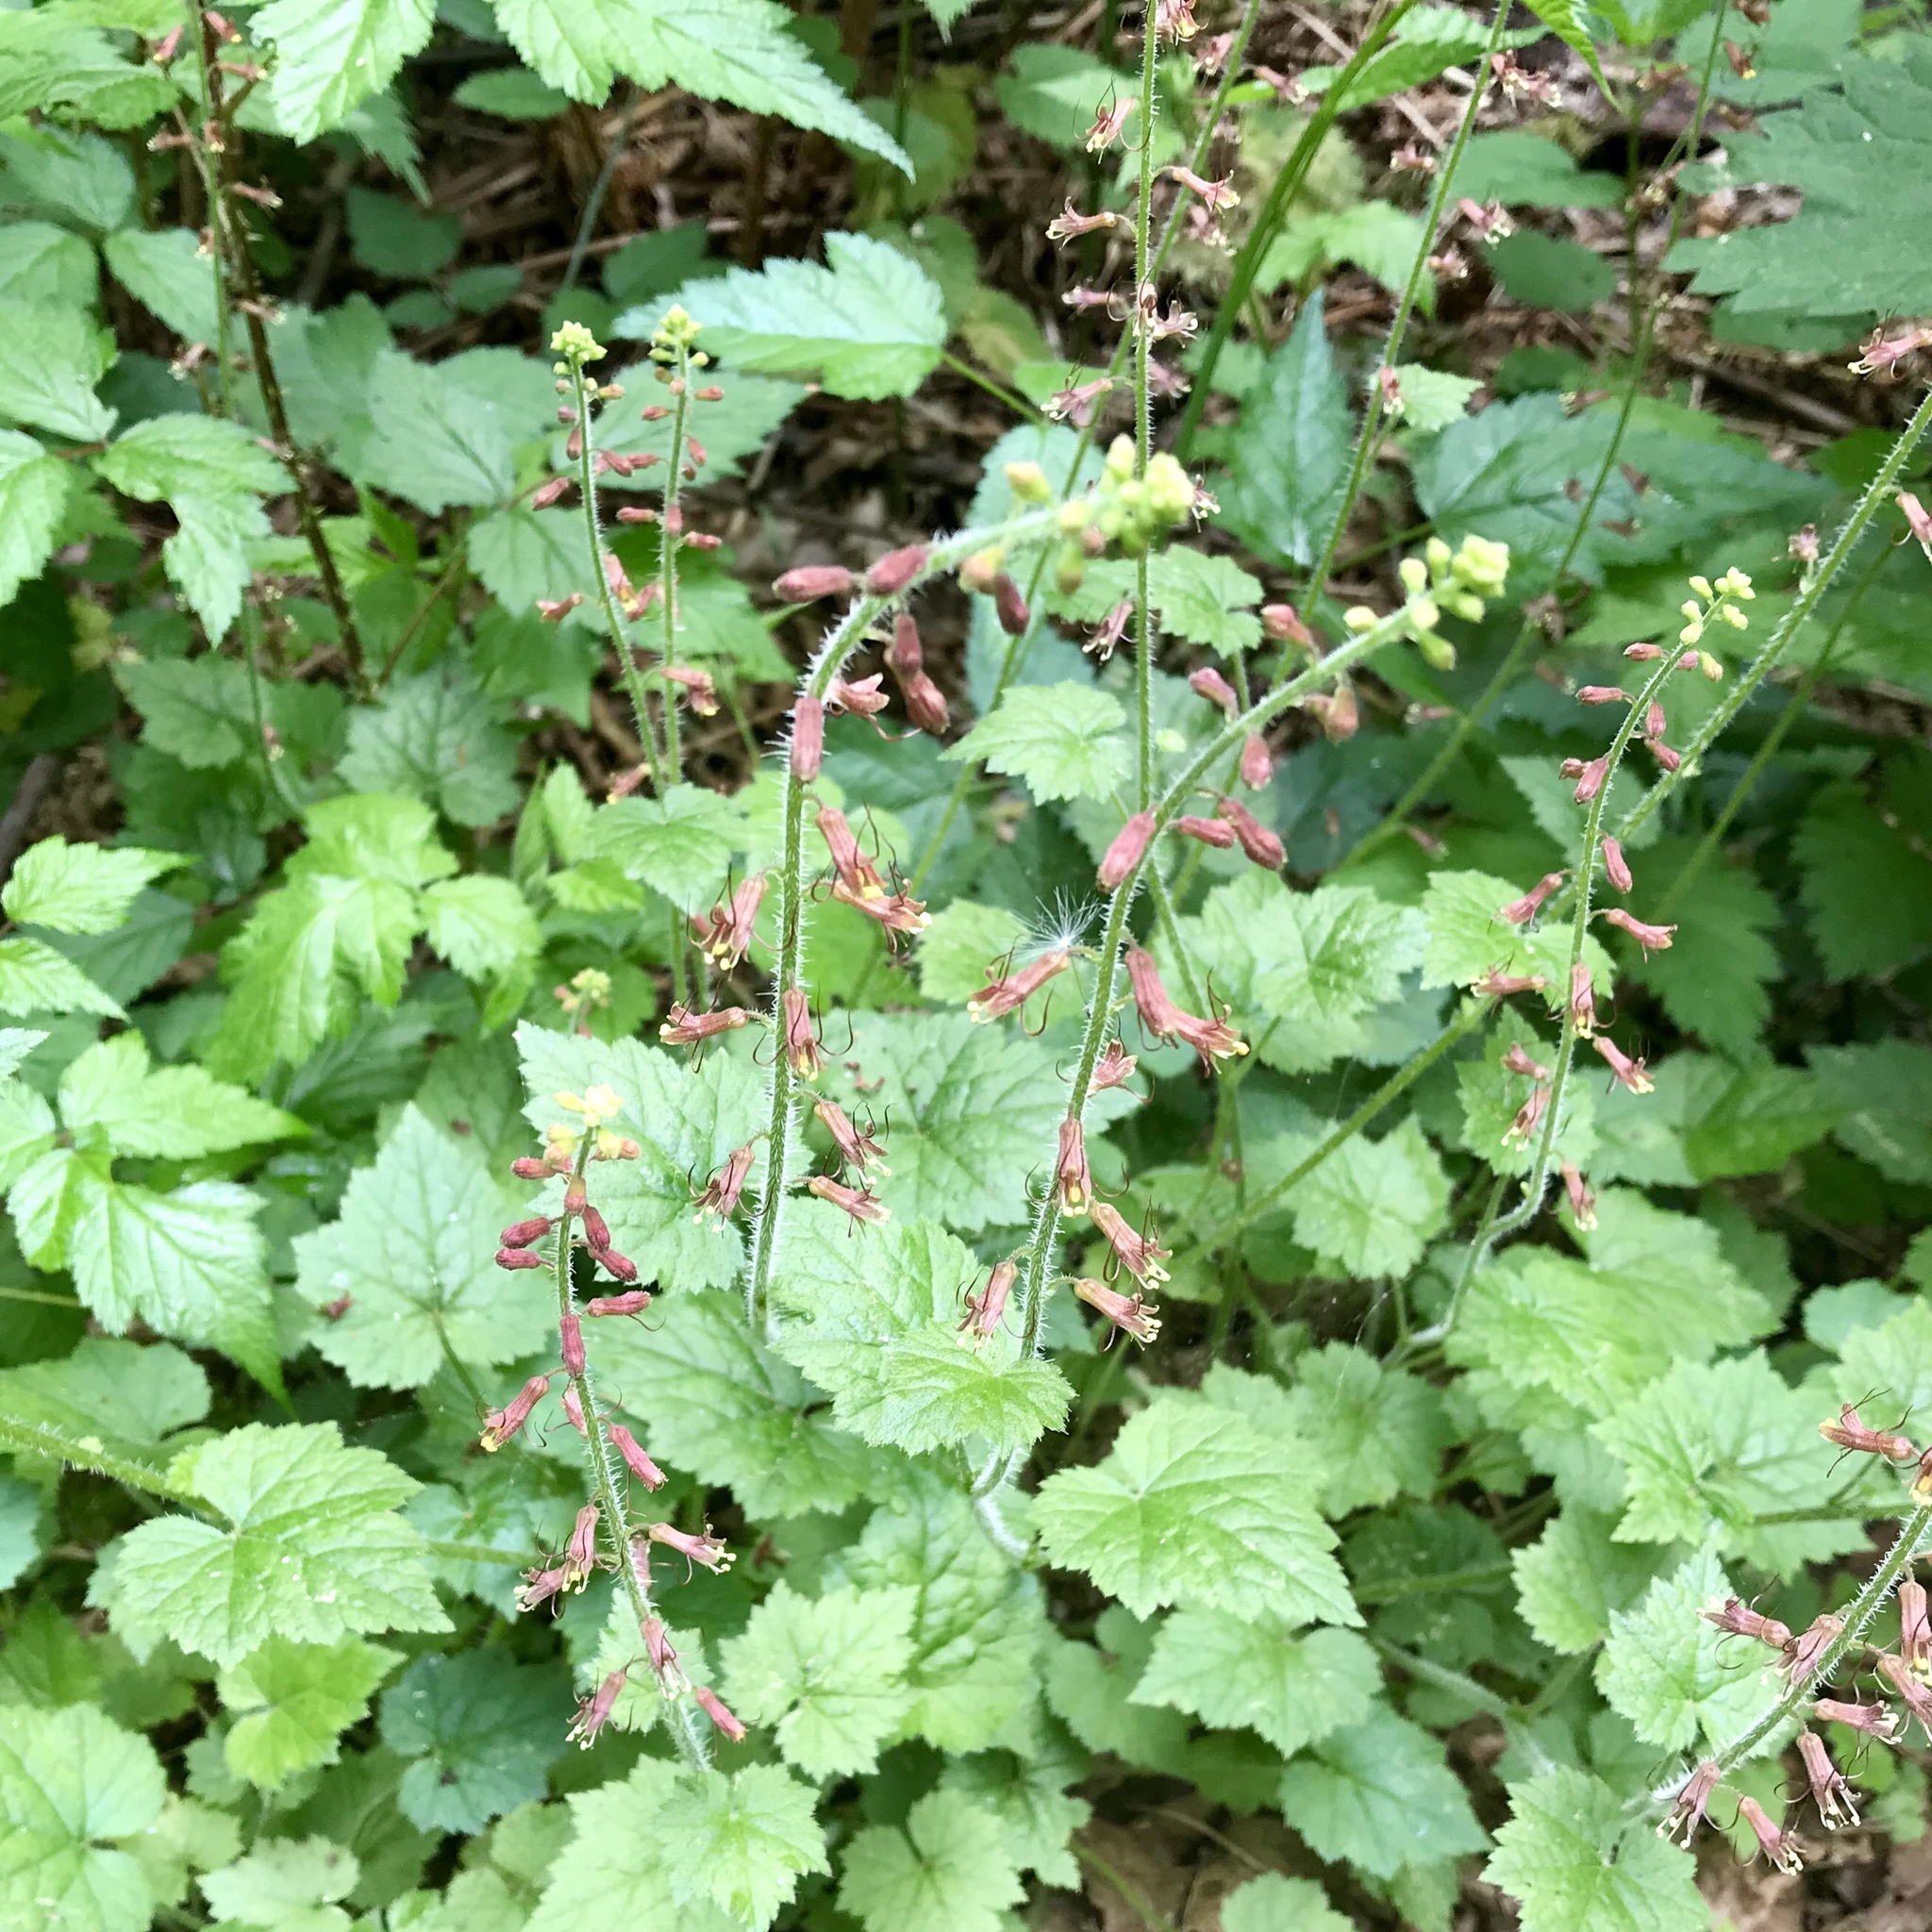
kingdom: Plantae
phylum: Tracheophyta
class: Magnoliopsida
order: Saxifragales
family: Saxifragaceae
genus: Tolmiea
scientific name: Tolmiea menziesii
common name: Pick-a-back-plant
